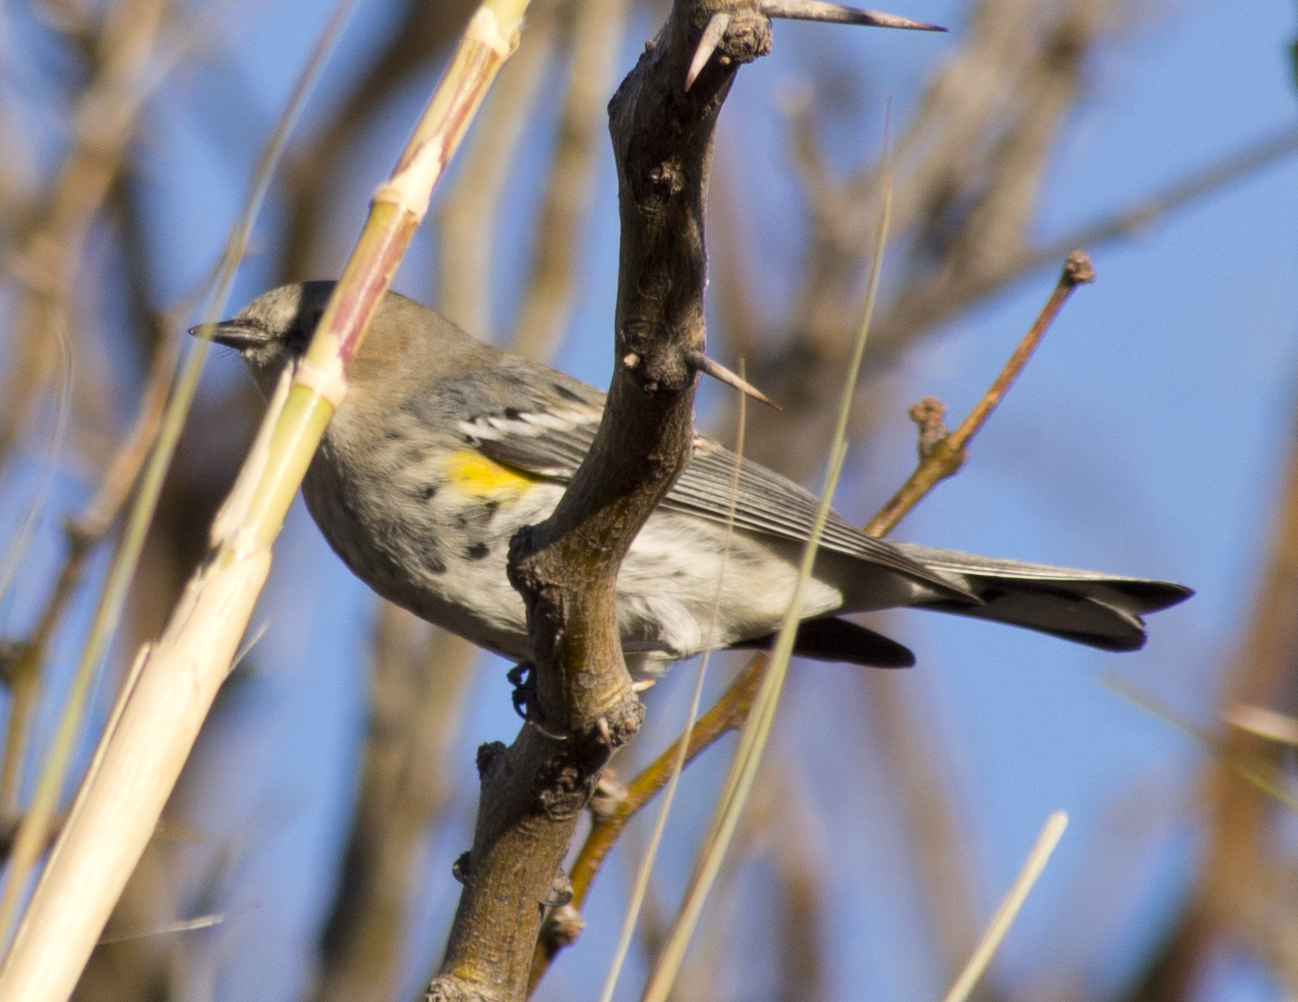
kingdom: Animalia
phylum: Chordata
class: Aves
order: Passeriformes
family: Parulidae
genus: Setophaga
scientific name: Setophaga coronata
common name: Myrtle warbler
